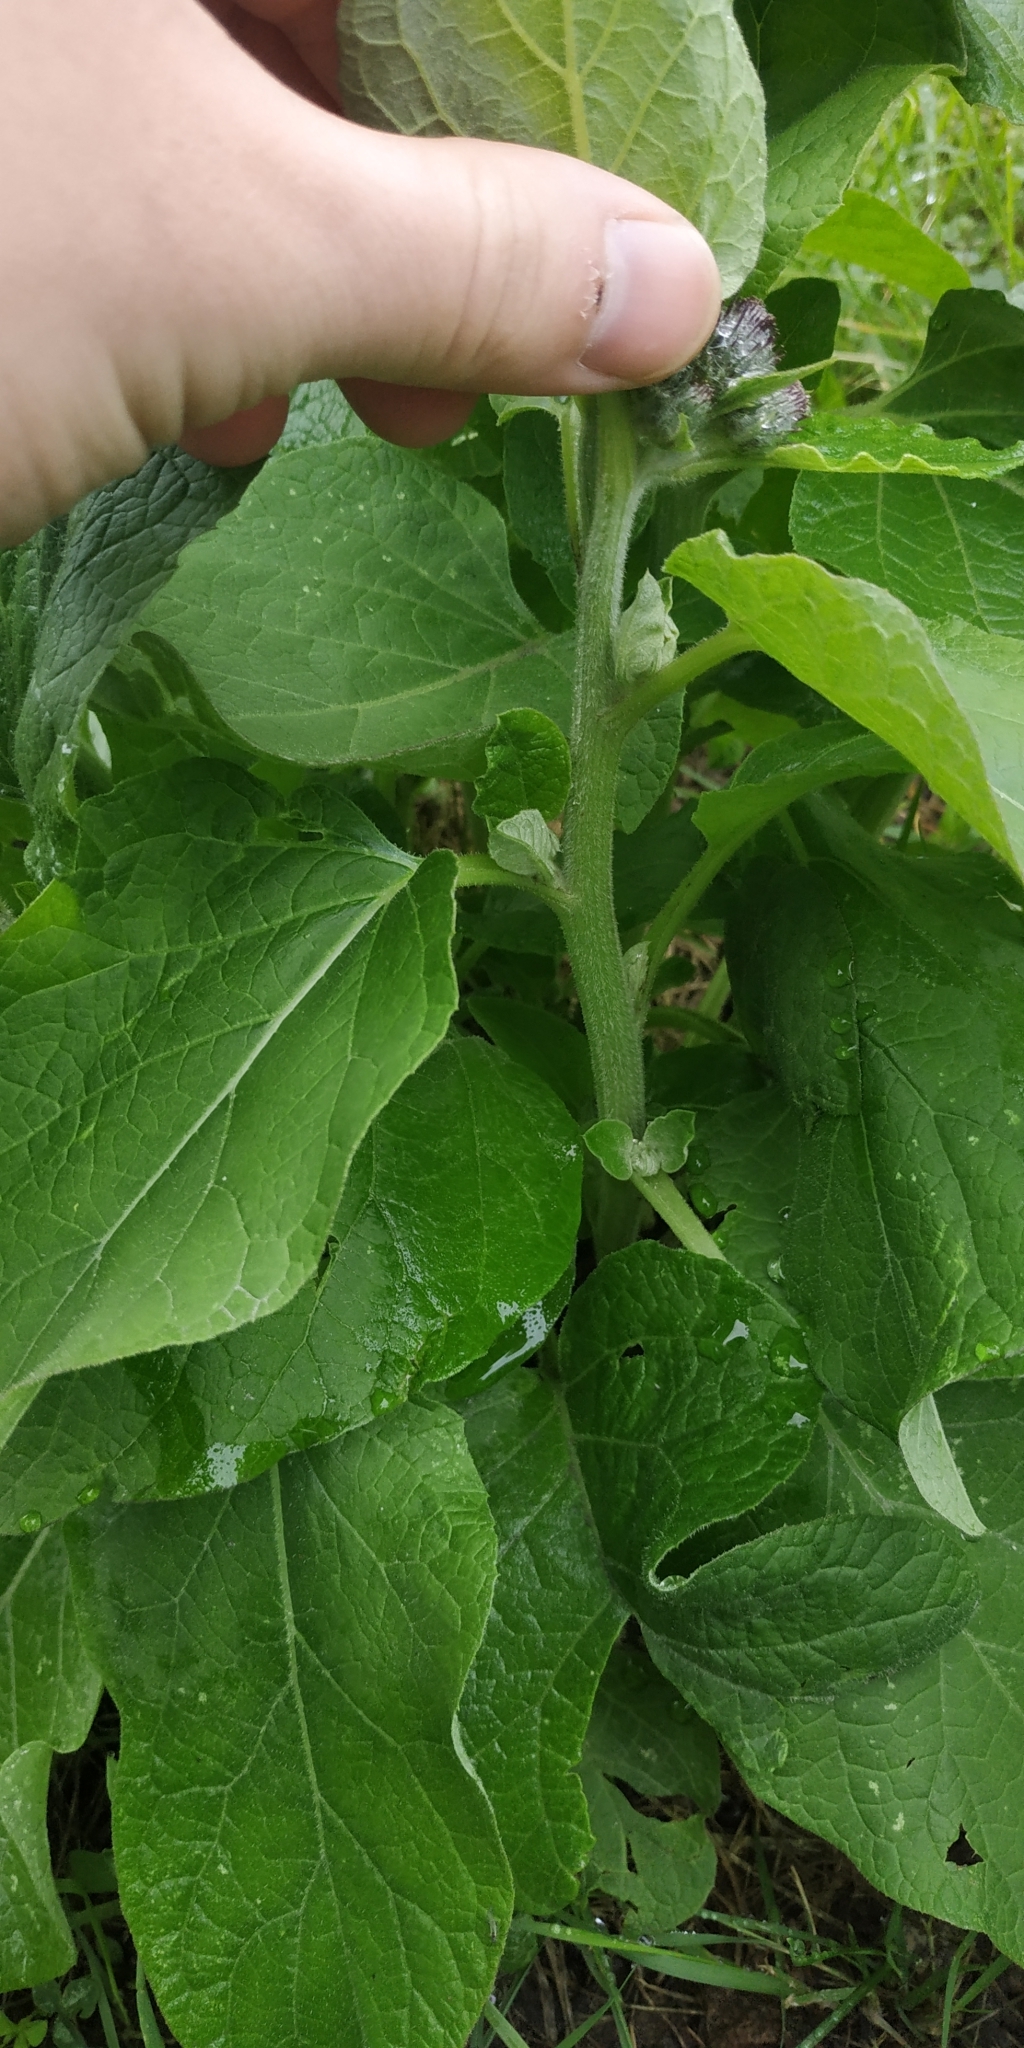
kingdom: Plantae
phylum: Tracheophyta
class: Magnoliopsida
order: Asterales
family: Asteraceae
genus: Arctium
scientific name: Arctium tomentosum
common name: Woolly burdock
